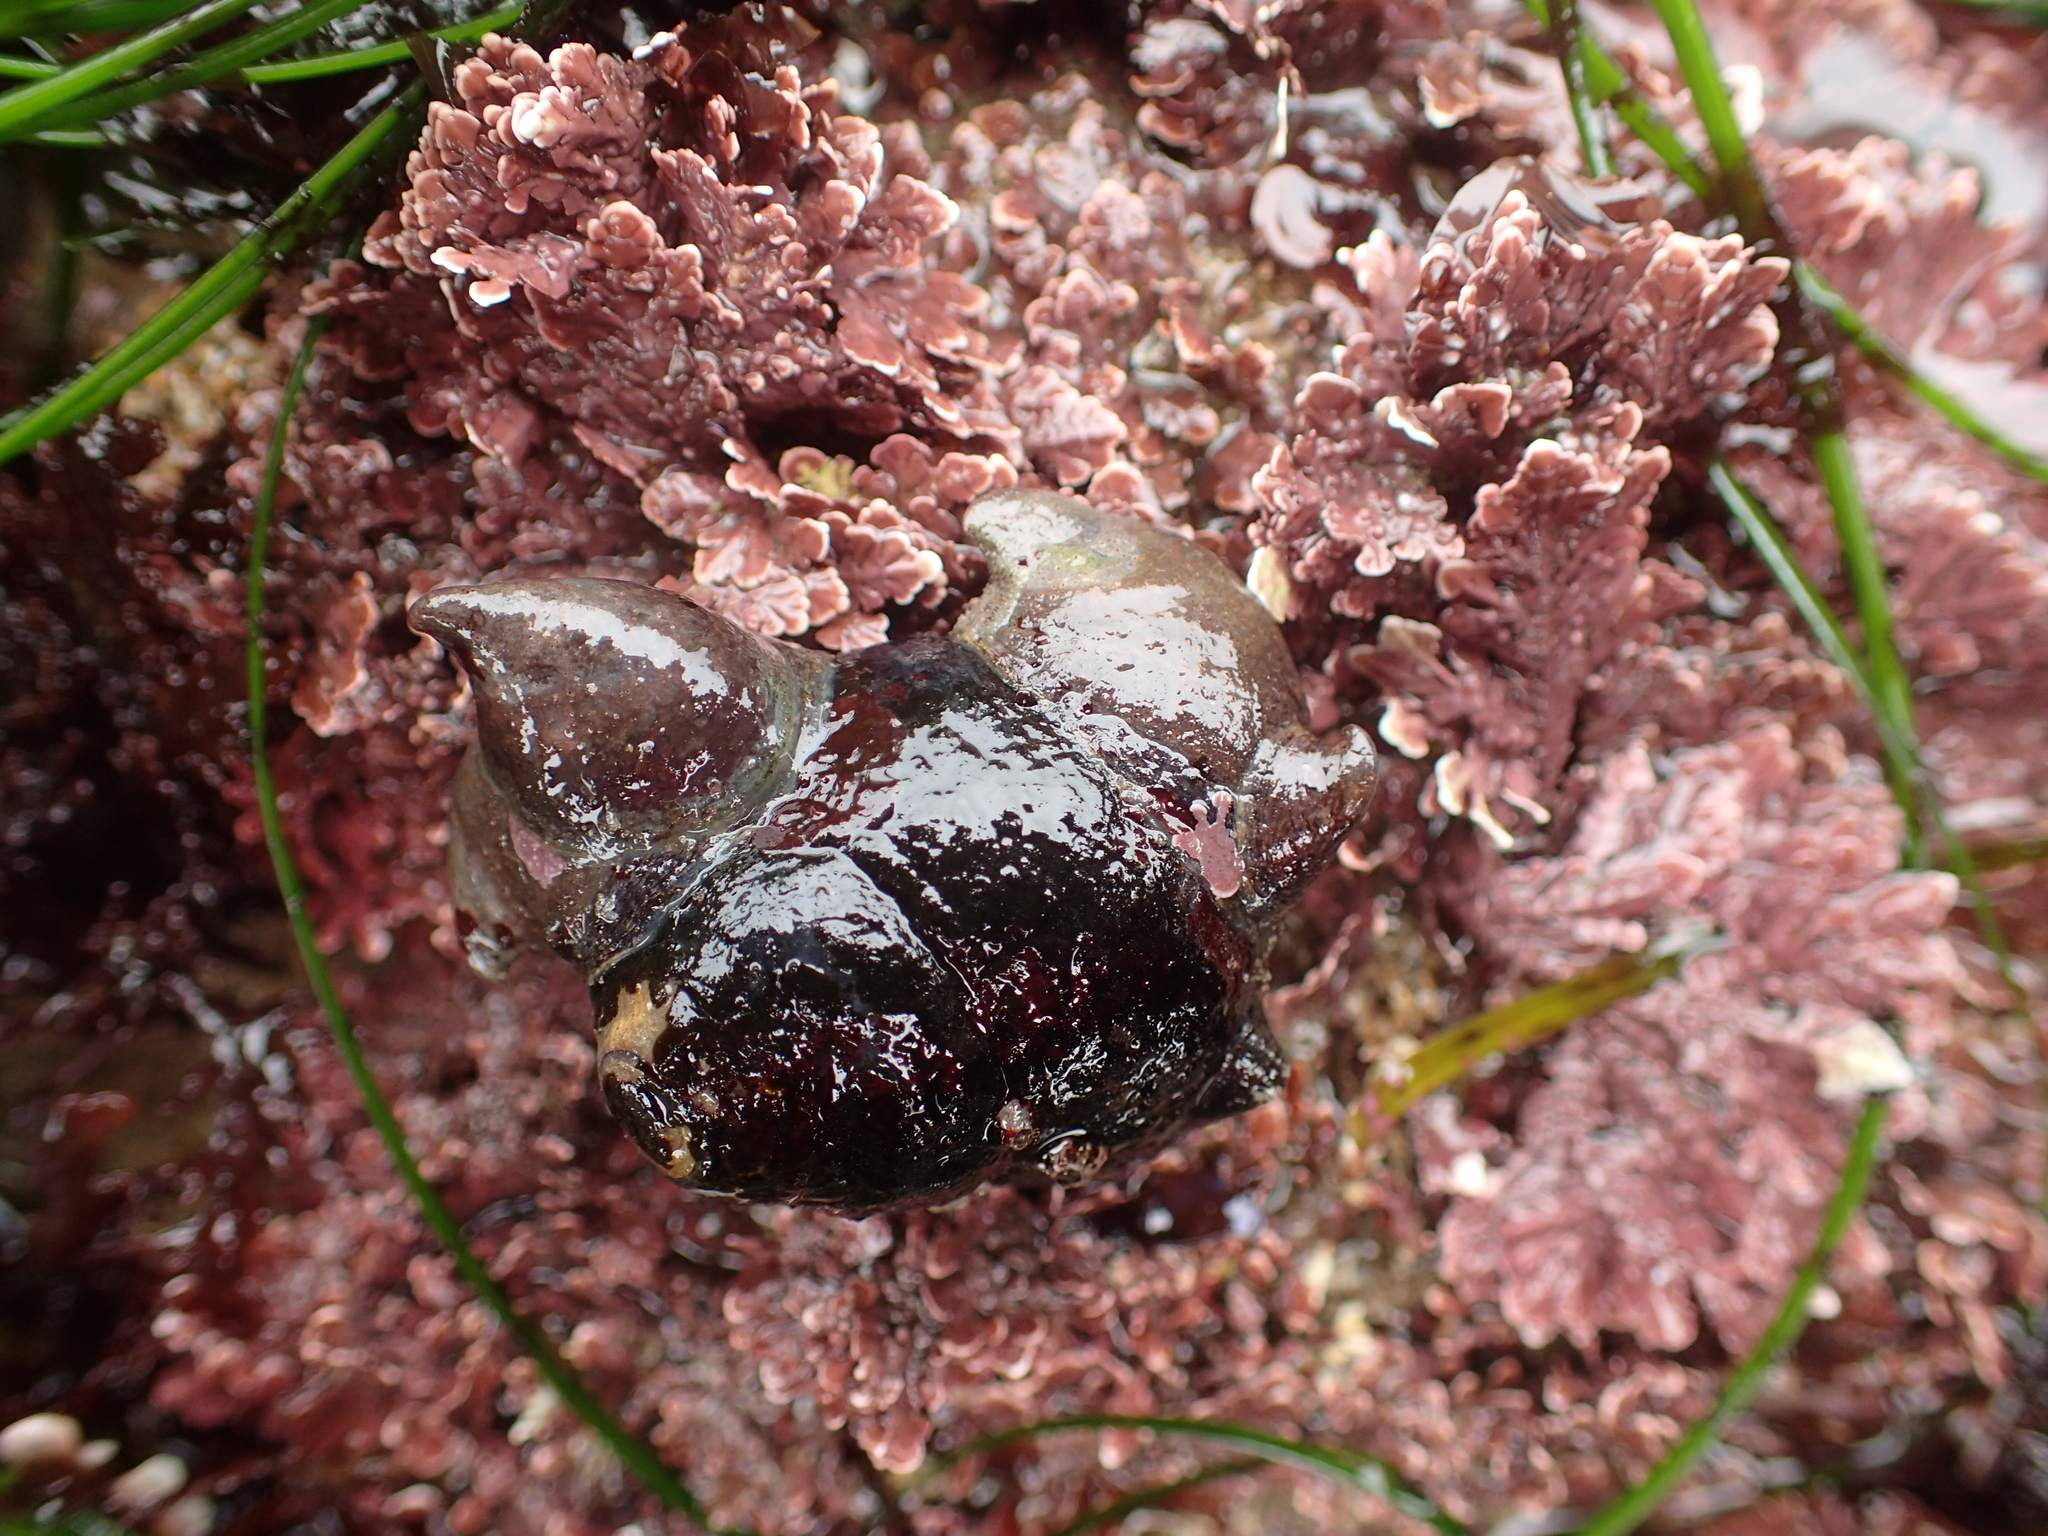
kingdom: Animalia
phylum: Mollusca
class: Gastropoda
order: Littorinimorpha
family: Calyptraeidae
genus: Crepidula
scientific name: Crepidula adunca
